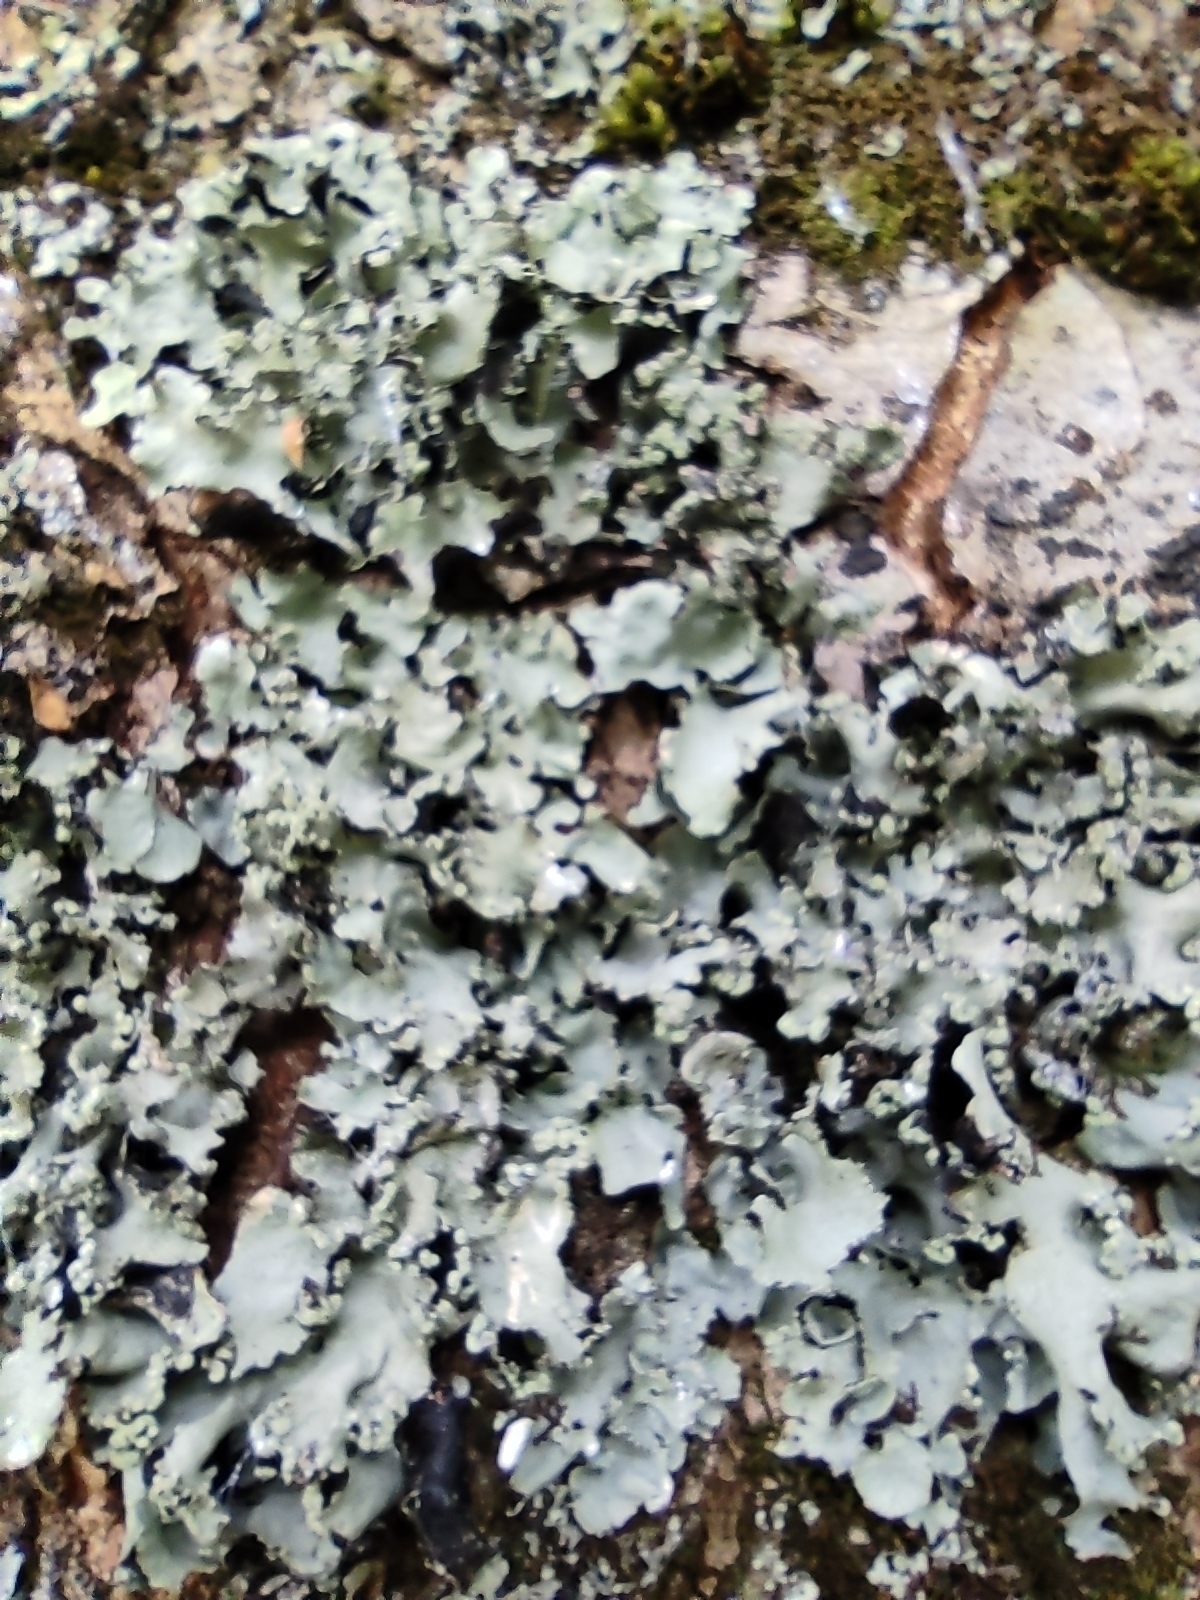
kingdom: Fungi
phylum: Ascomycota
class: Lecanoromycetes
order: Lecanorales
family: Parmeliaceae
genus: Parmotrema
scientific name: Parmotrema perlatum
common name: Black stone flower
